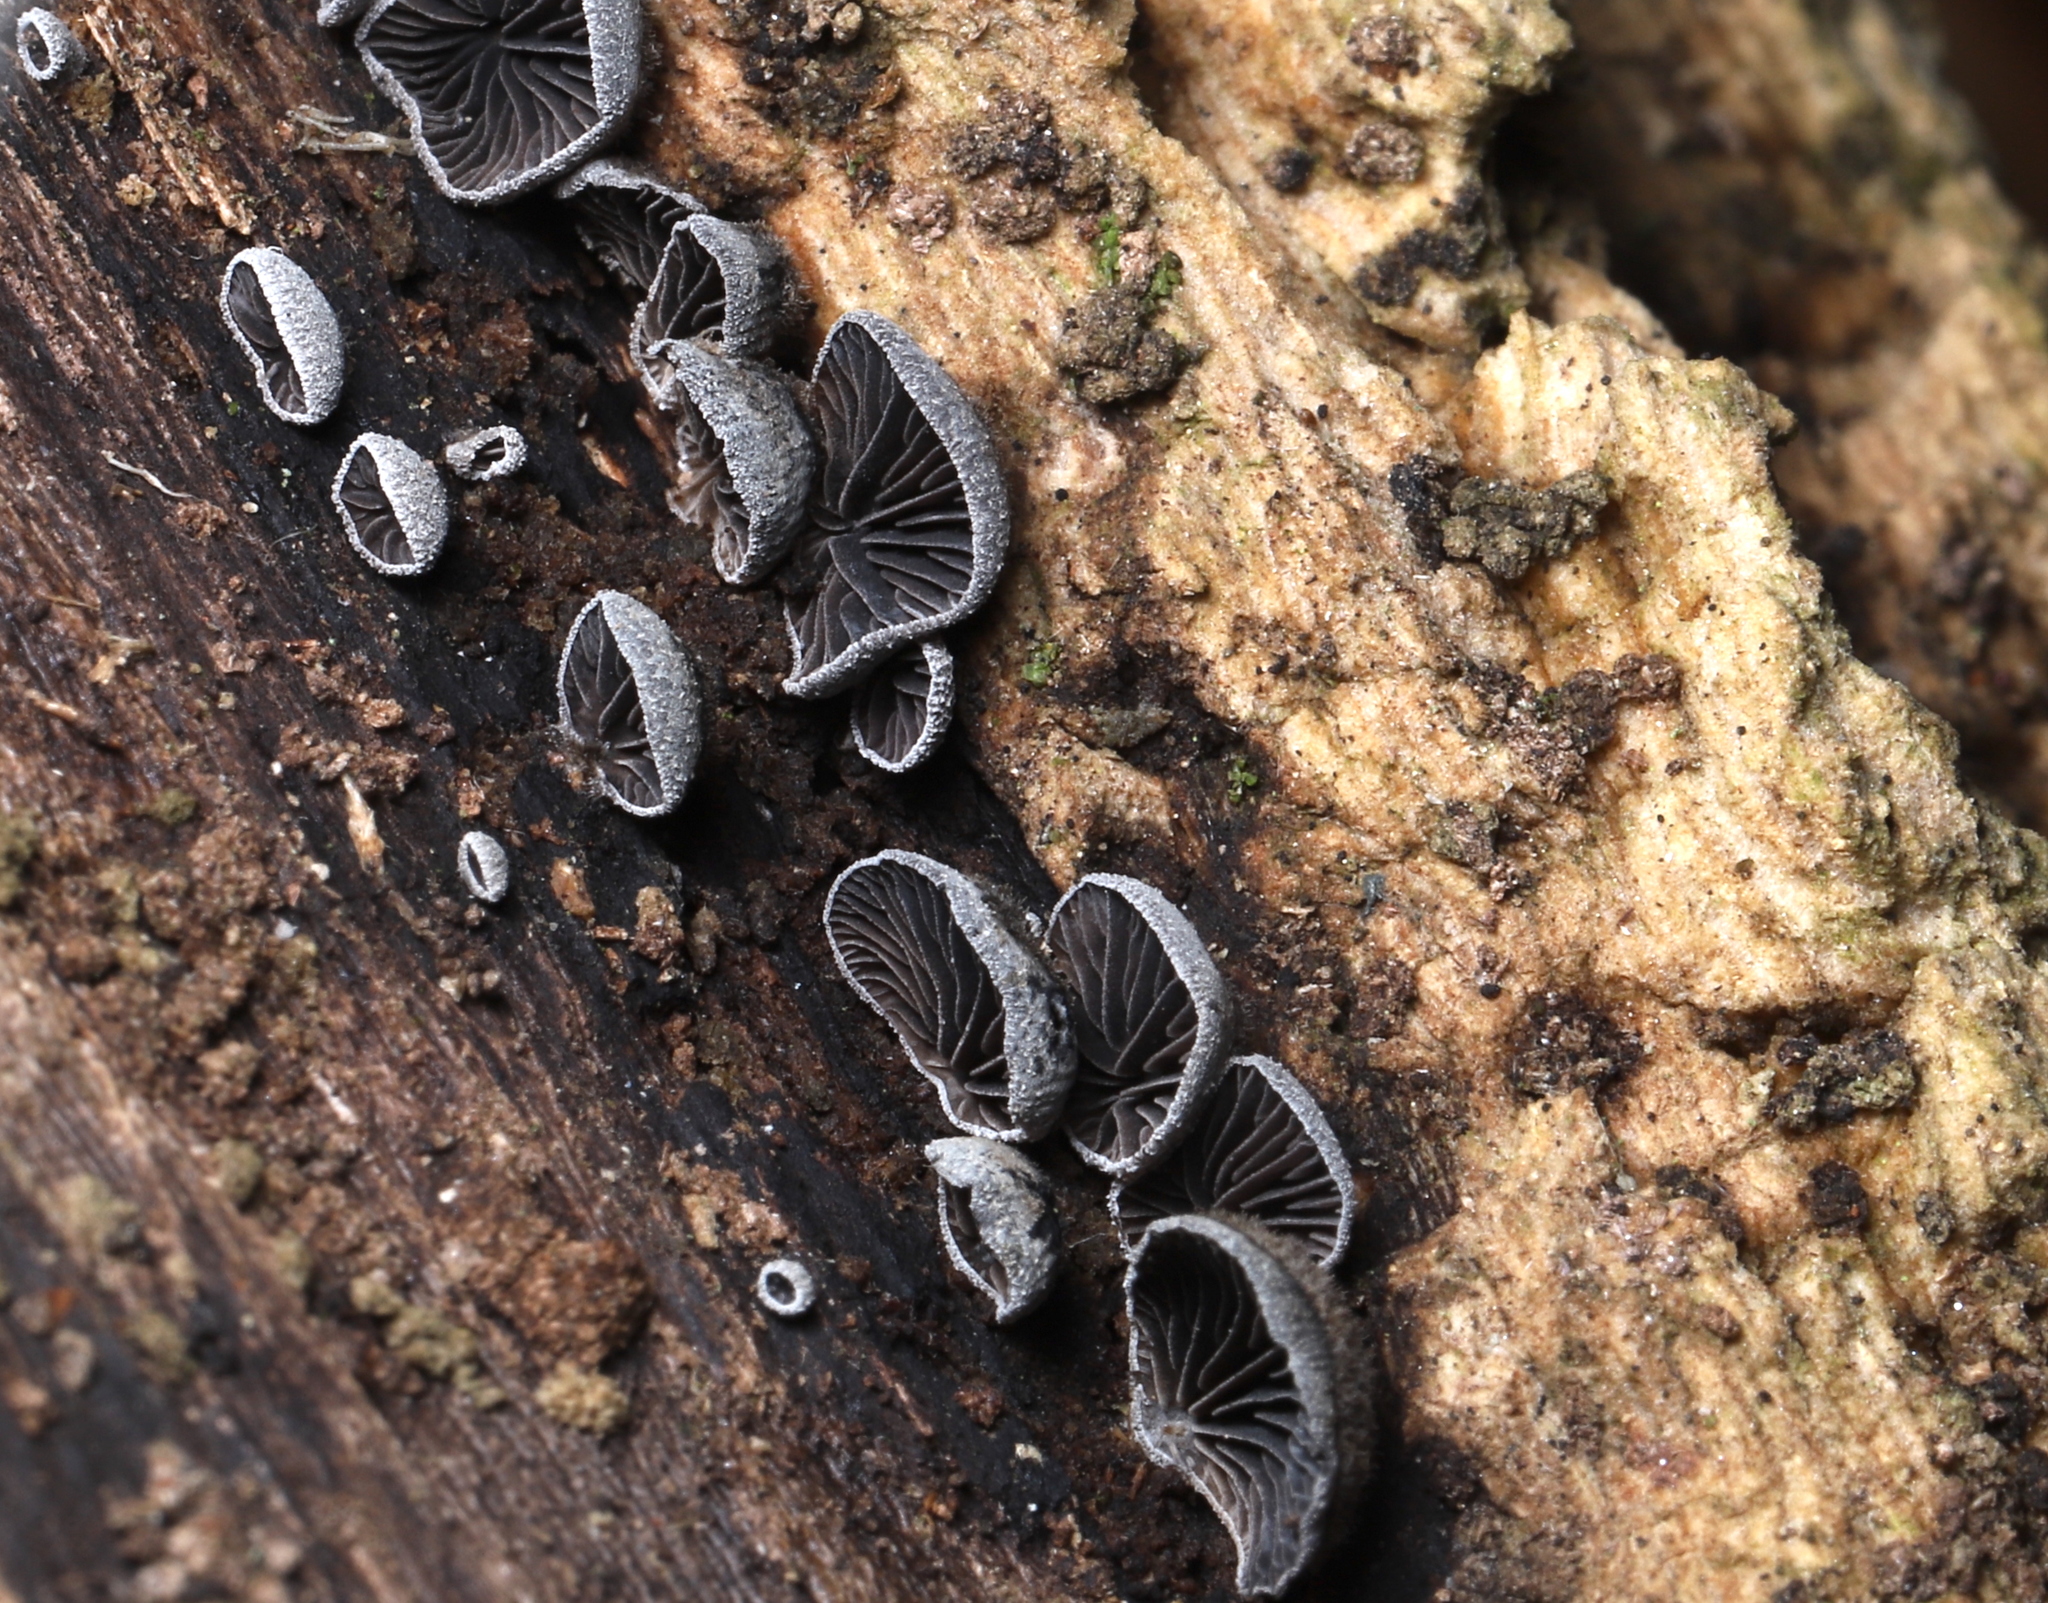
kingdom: Fungi
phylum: Basidiomycota
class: Agaricomycetes
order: Agaricales
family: Pleurotaceae
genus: Resupinatus
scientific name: Resupinatus applicatus
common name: Smoked oysterling
